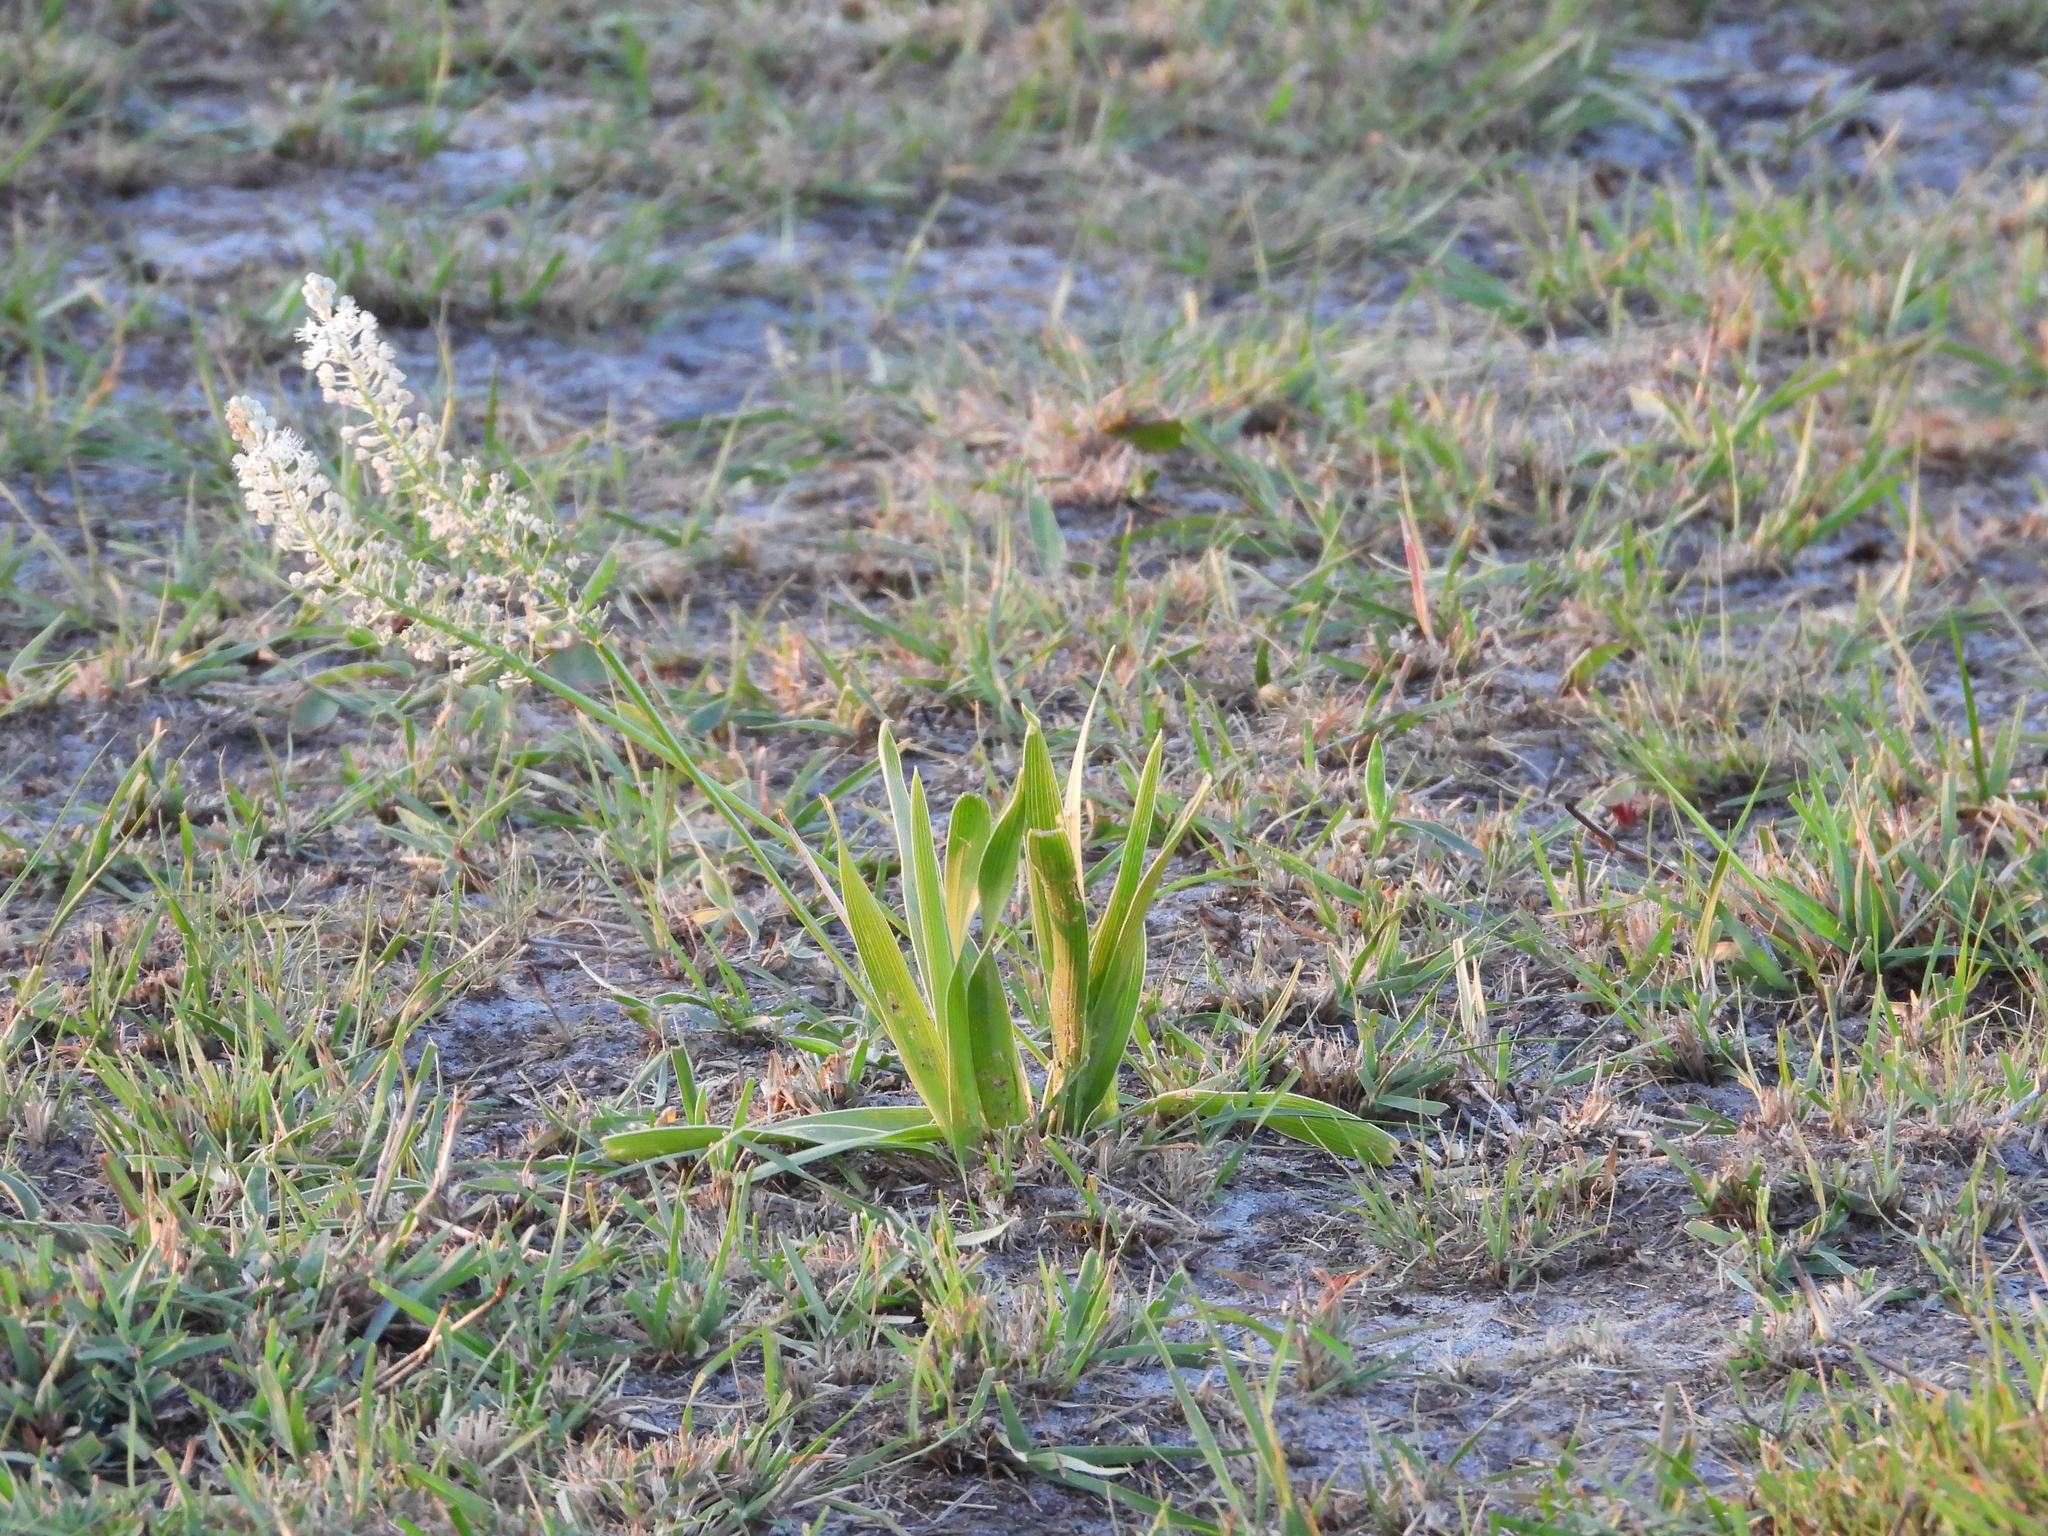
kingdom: Plantae
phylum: Tracheophyta
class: Liliopsida
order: Asparagales
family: Asparagaceae
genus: Schizocarphus
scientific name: Schizocarphus nervosus
